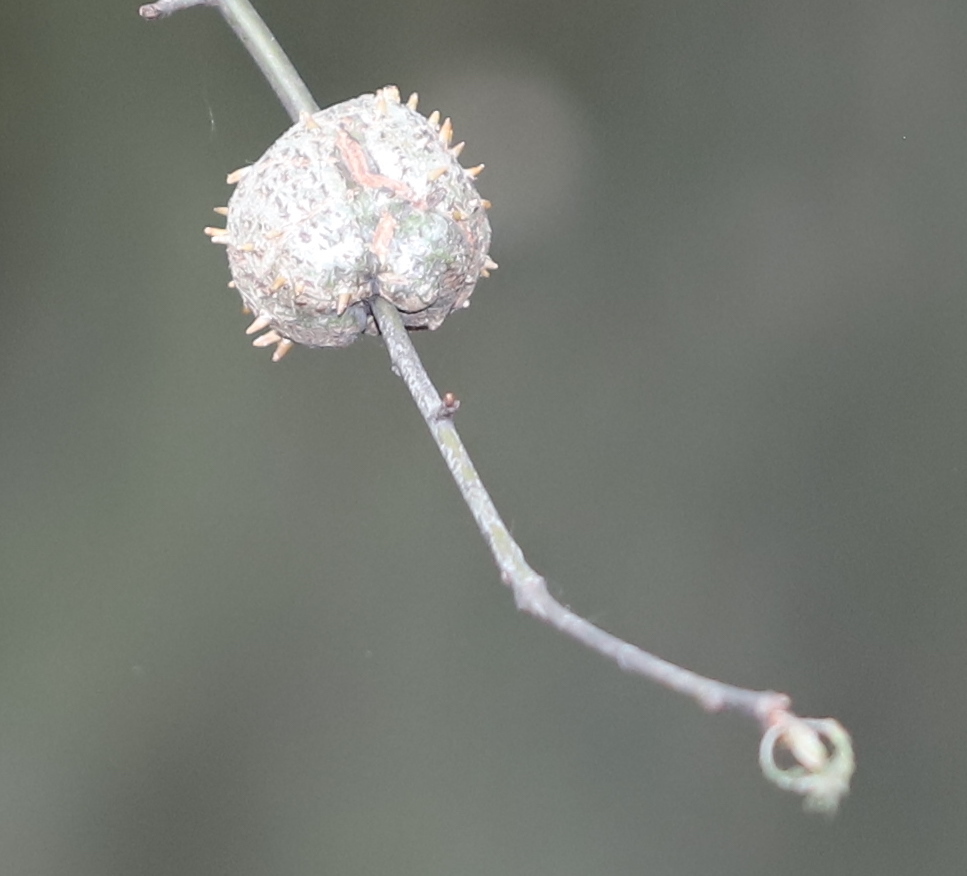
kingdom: Animalia
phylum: Arthropoda
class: Insecta
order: Hymenoptera
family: Cynipidae
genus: Callirhytis
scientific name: Callirhytis
